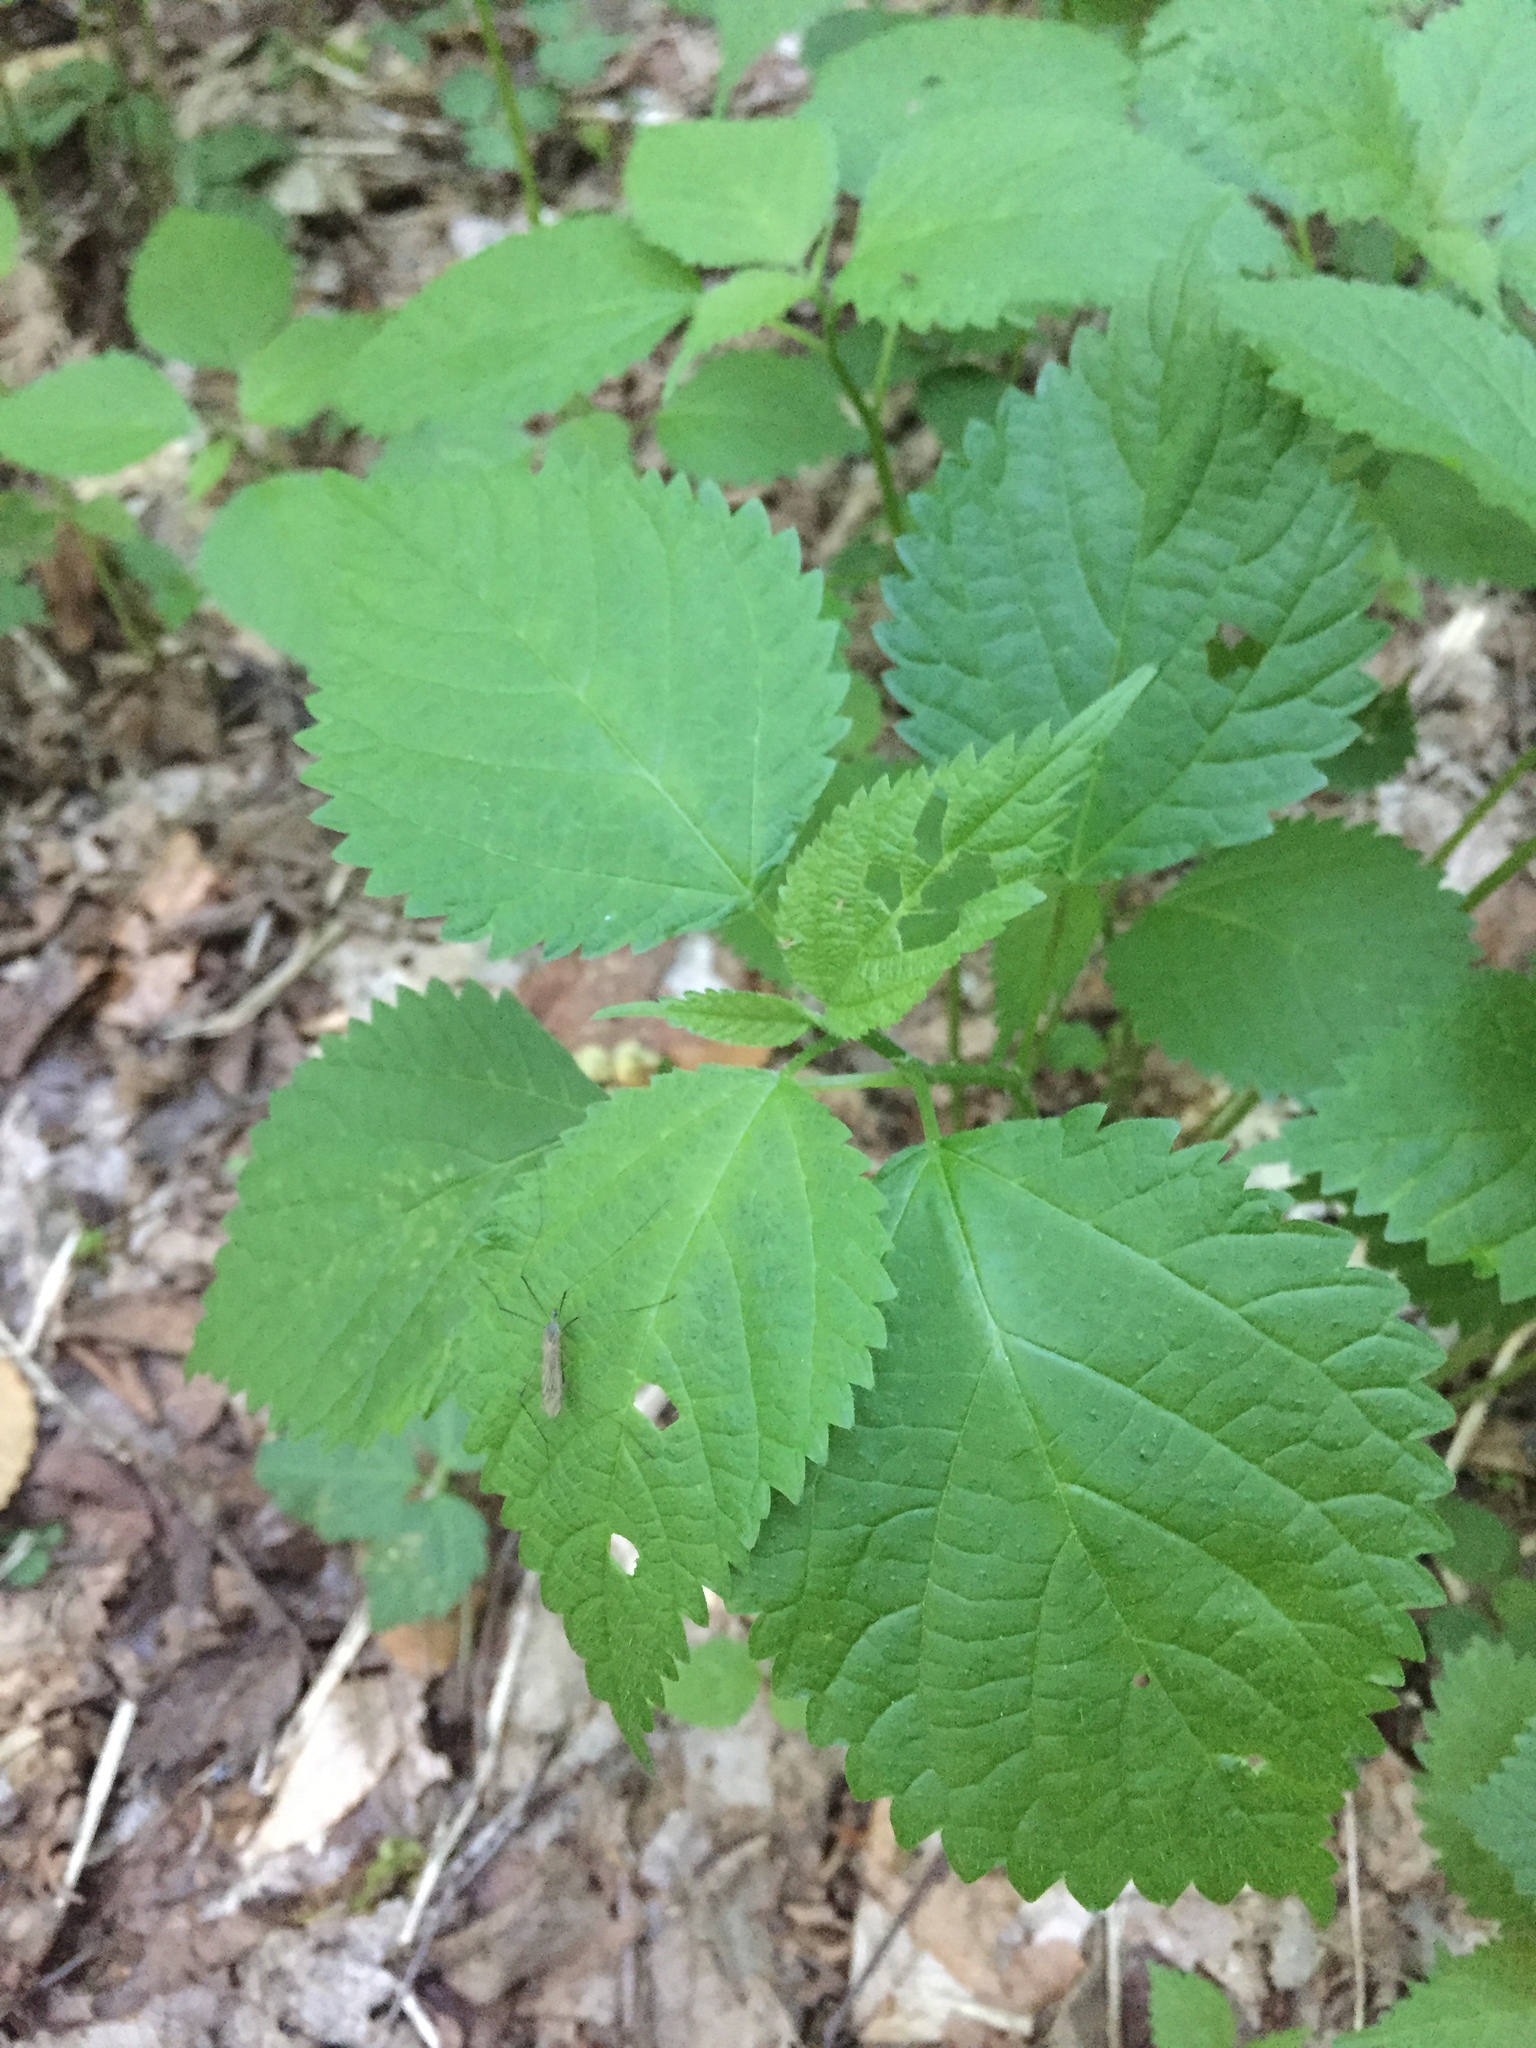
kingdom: Plantae
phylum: Tracheophyta
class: Magnoliopsida
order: Rosales
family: Urticaceae
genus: Laportea
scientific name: Laportea canadensis
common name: Canada nettle
